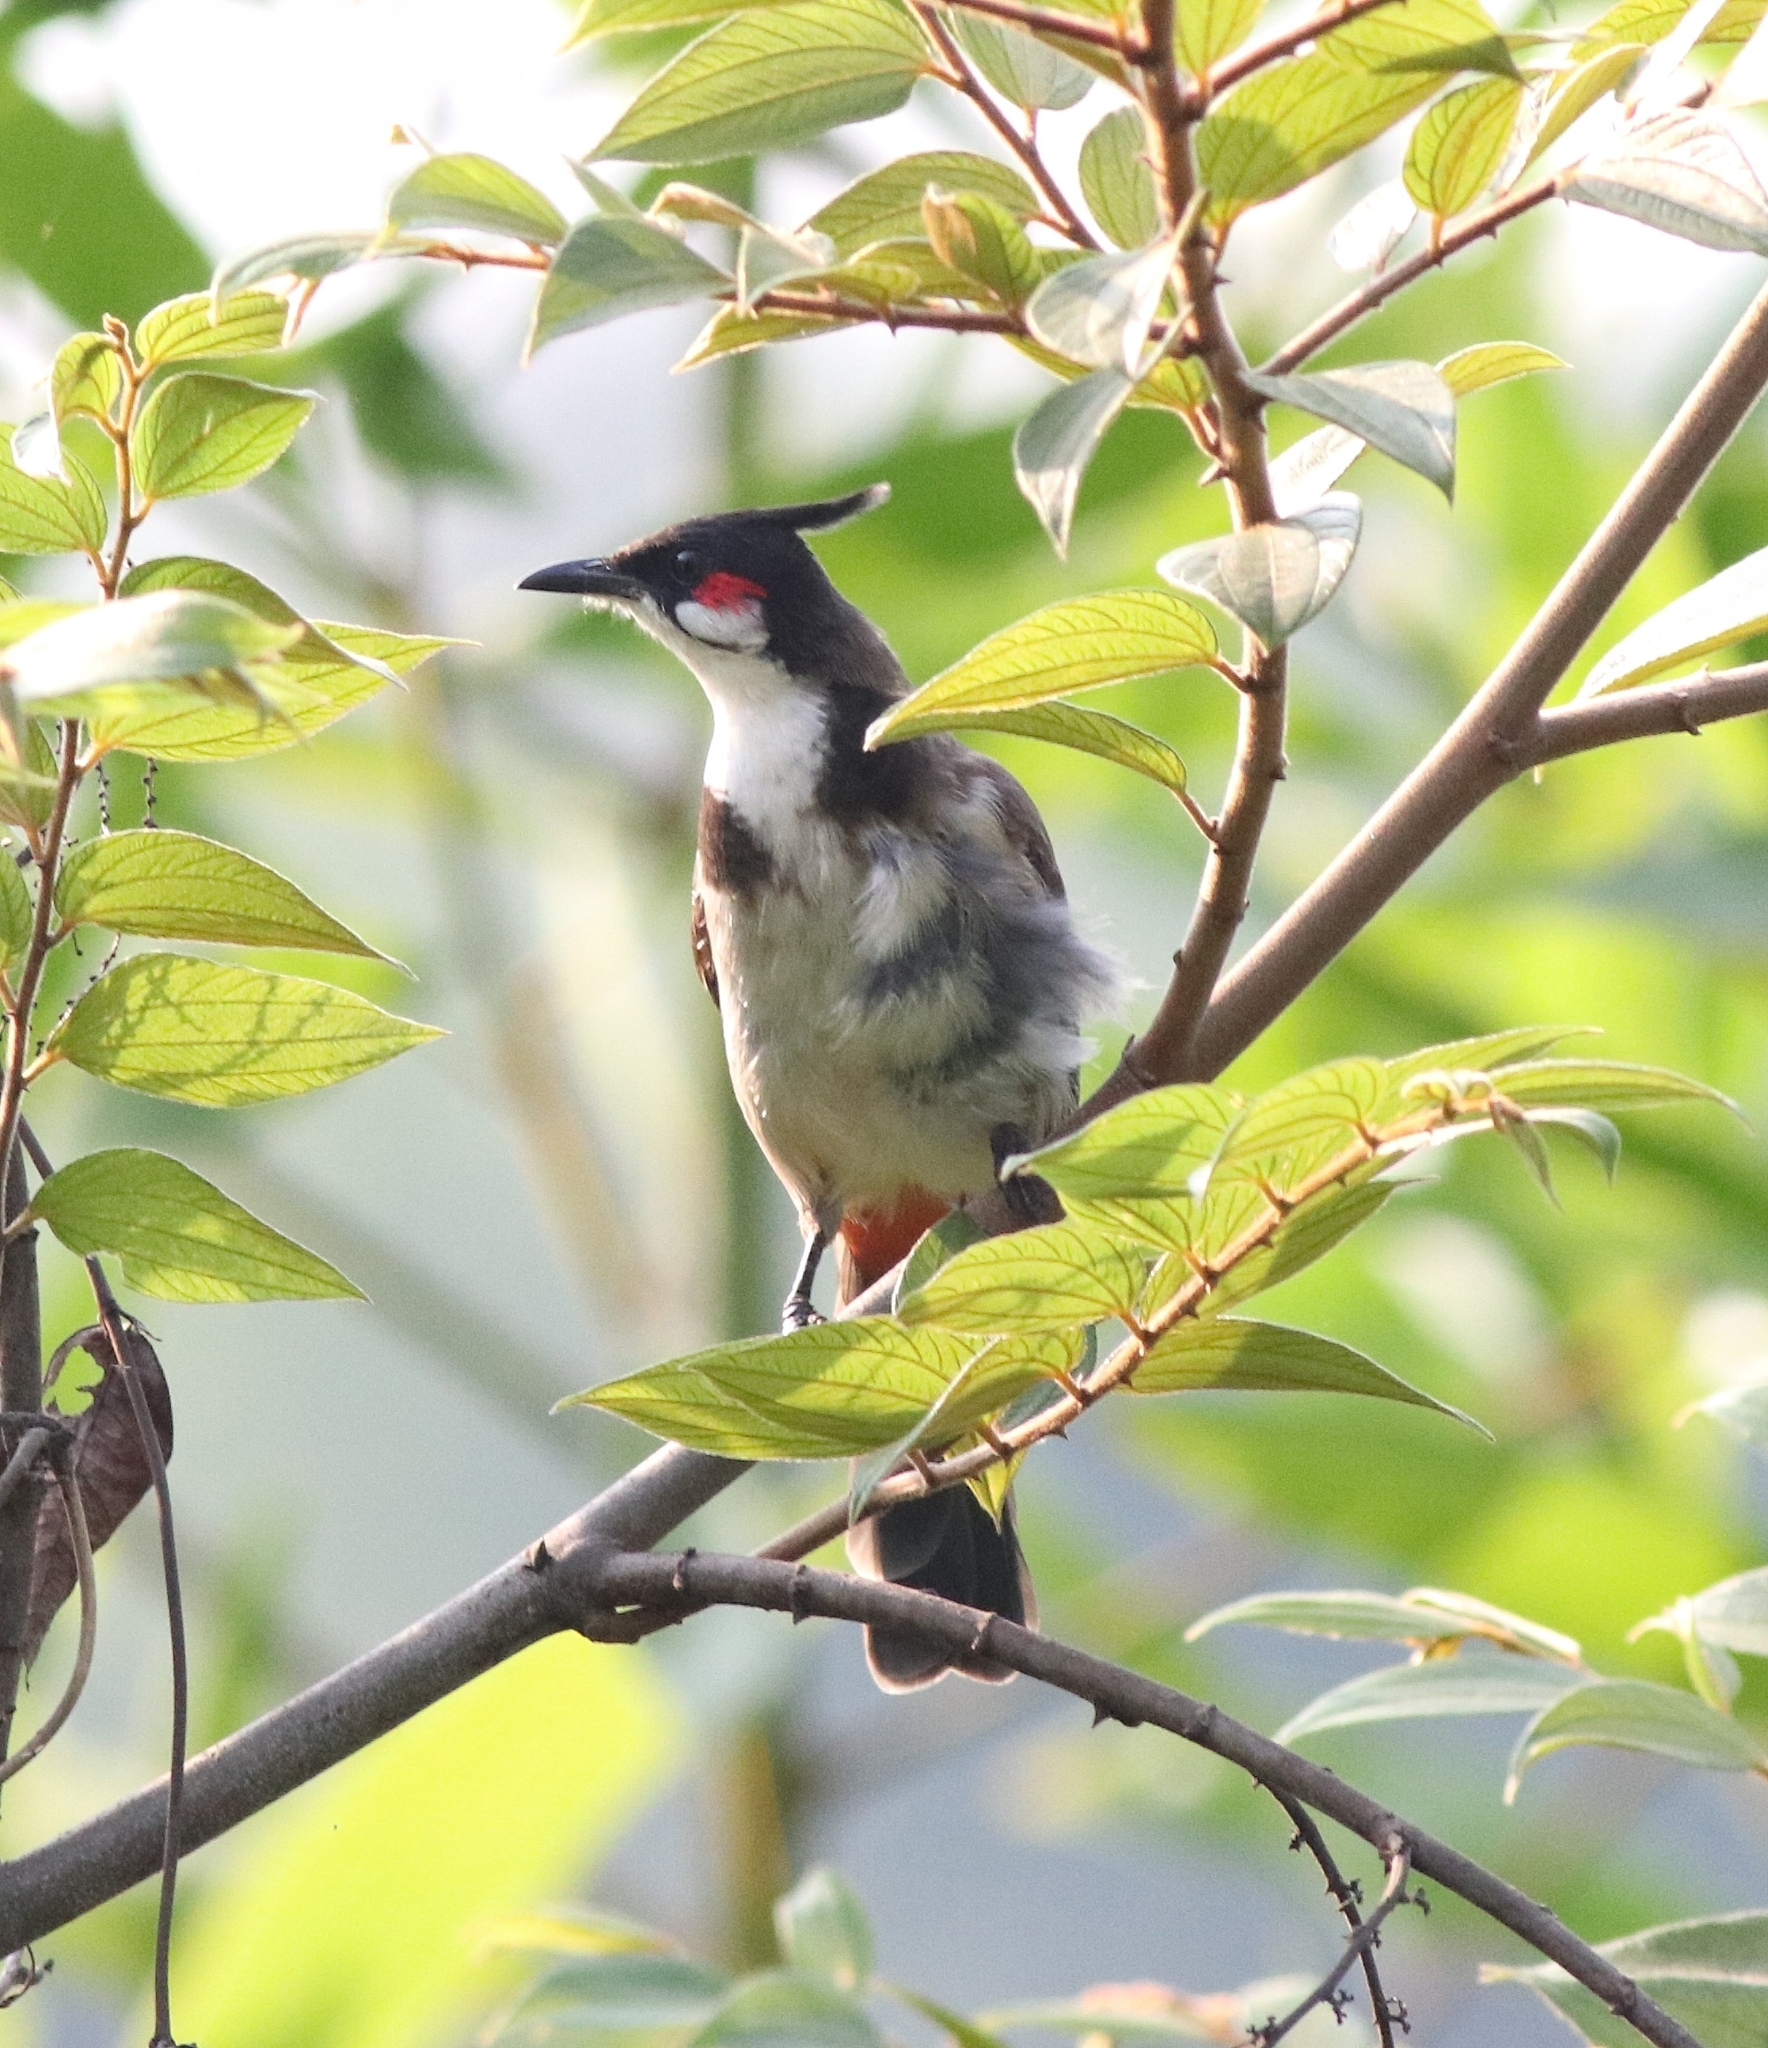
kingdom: Animalia
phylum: Chordata
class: Aves
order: Passeriformes
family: Pycnonotidae
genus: Pycnonotus
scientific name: Pycnonotus jocosus
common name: Red-whiskered bulbul
